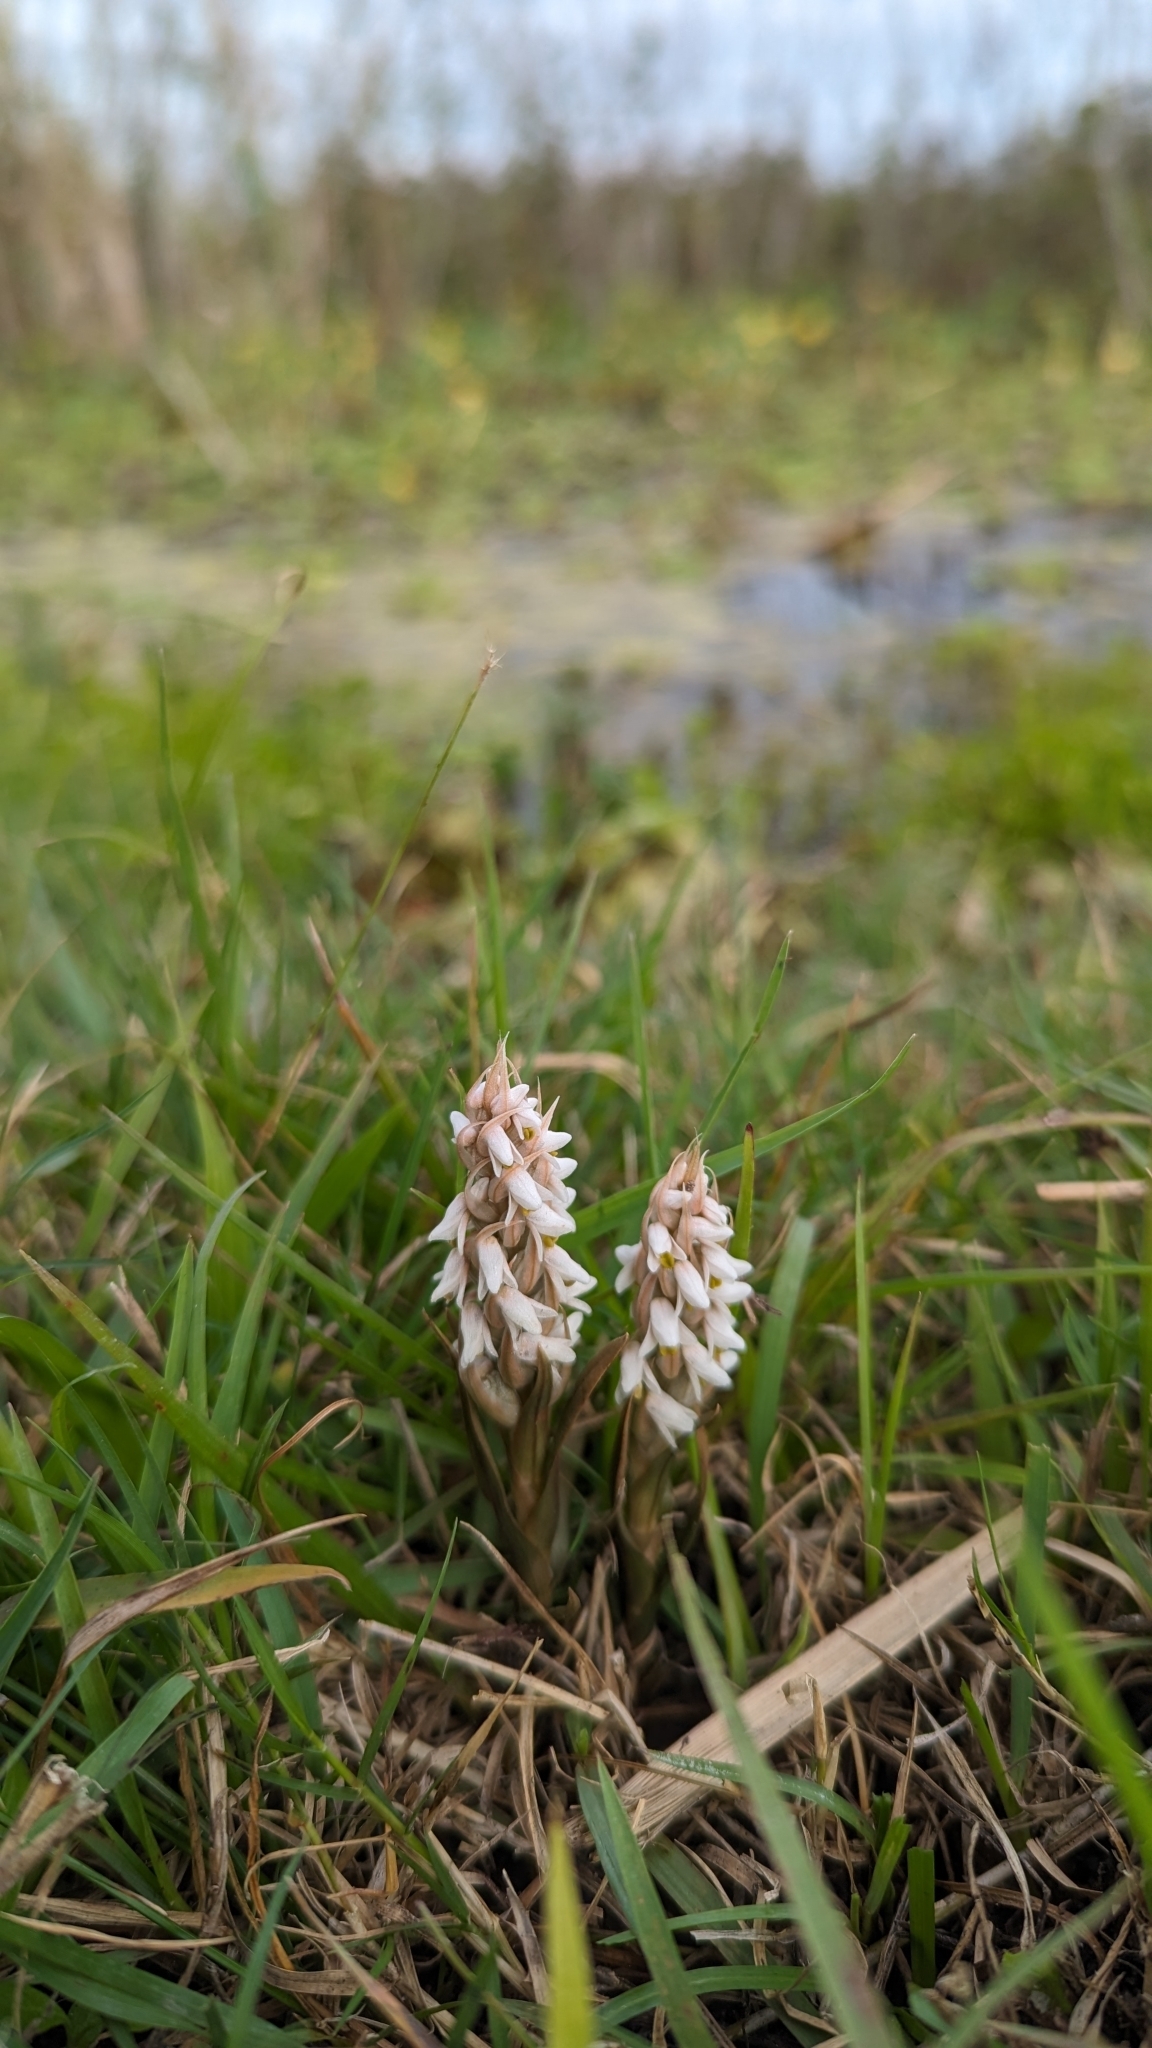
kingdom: Plantae
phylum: Tracheophyta
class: Liliopsida
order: Asparagales
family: Orchidaceae
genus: Zeuxine
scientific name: Zeuxine strateumatica
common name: Soldier's orchid
